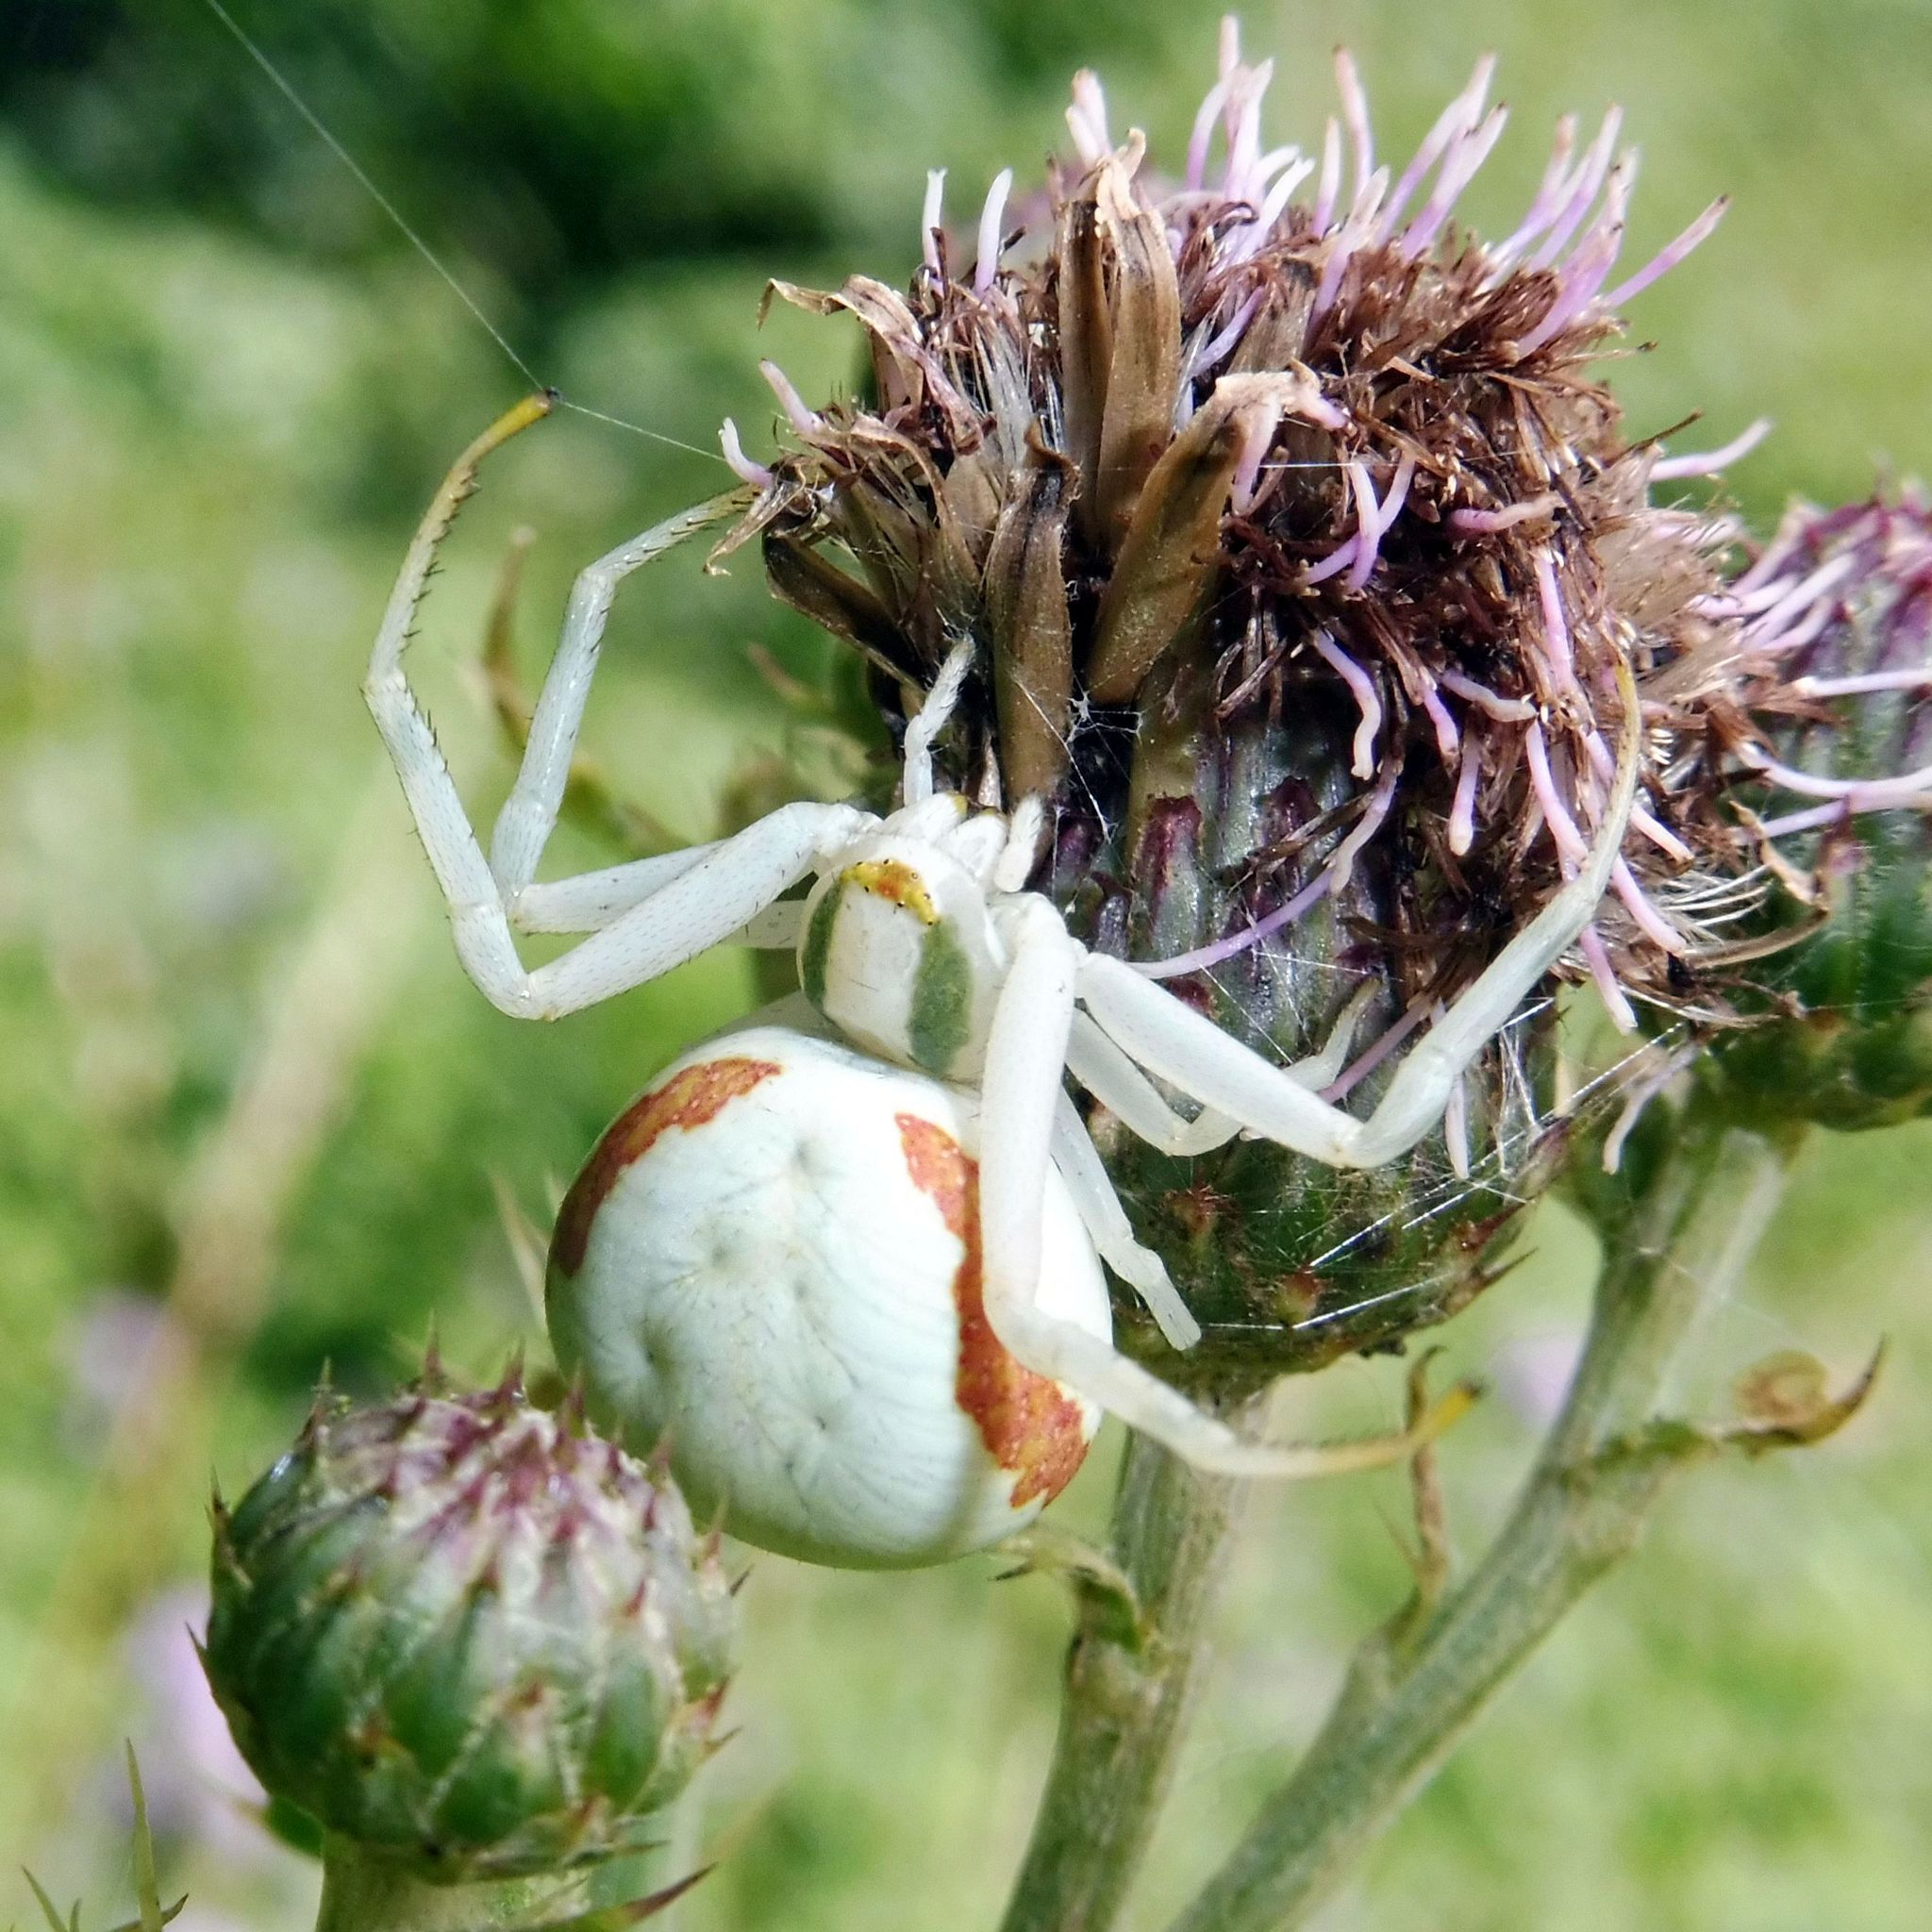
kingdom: Animalia
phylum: Arthropoda
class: Arachnida
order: Araneae
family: Thomisidae
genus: Misumena
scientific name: Misumena vatia
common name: Goldenrod crab spider
